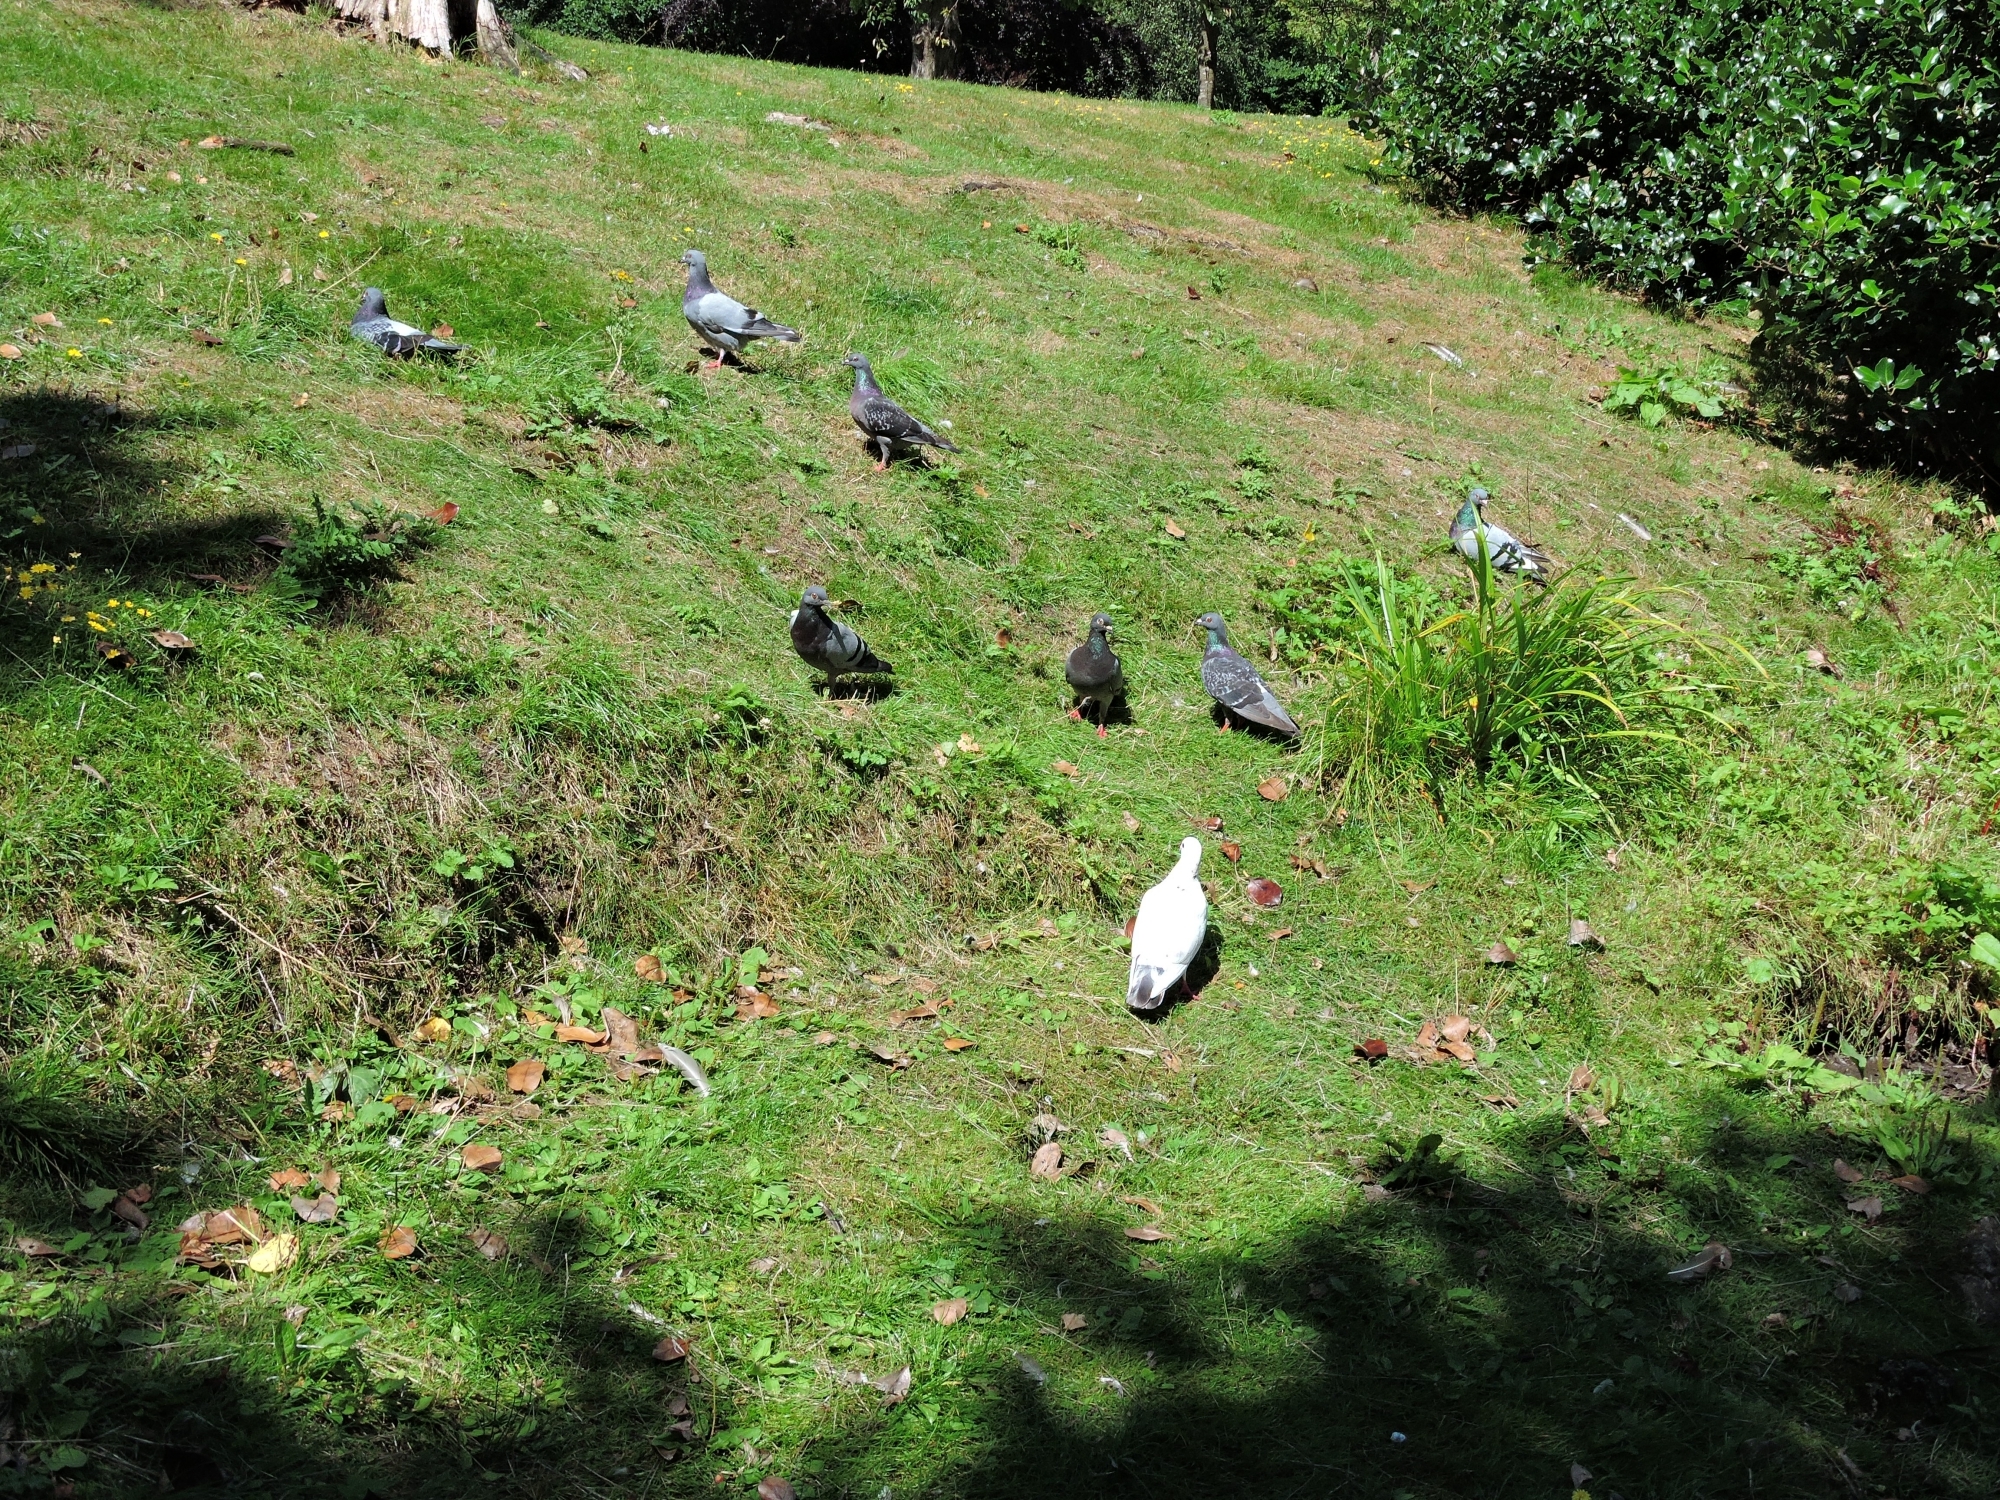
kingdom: Animalia
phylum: Chordata
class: Aves
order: Columbiformes
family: Columbidae
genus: Columba
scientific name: Columba livia
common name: Rock pigeon
